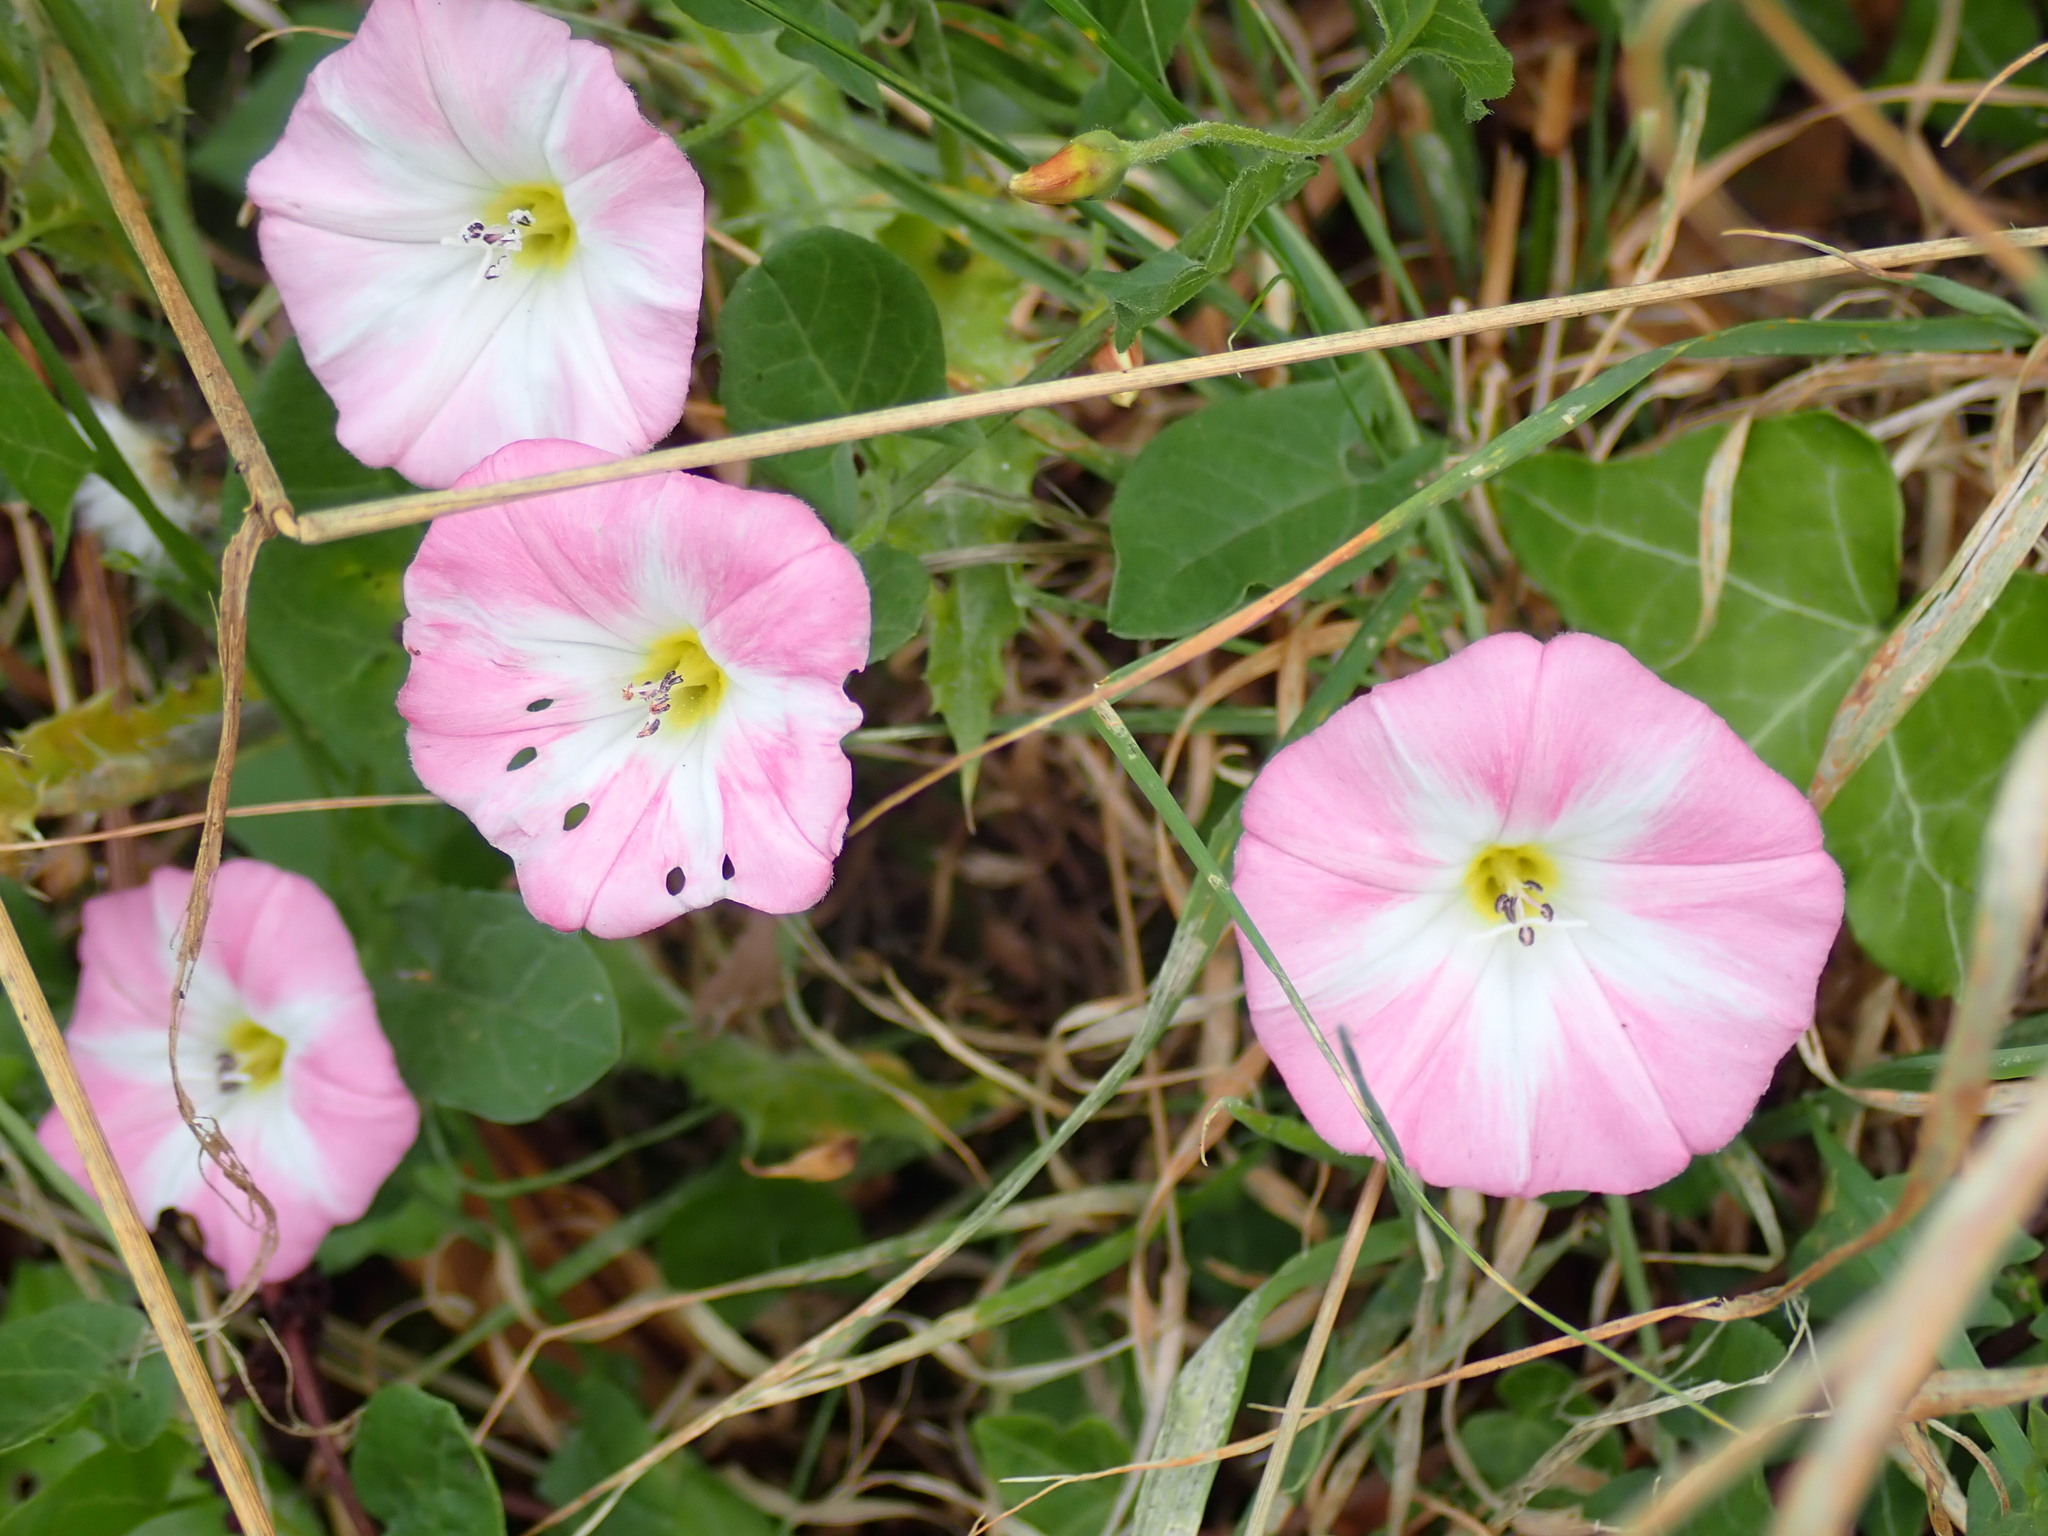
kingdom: Plantae
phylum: Tracheophyta
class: Magnoliopsida
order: Solanales
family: Convolvulaceae
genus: Convolvulus
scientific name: Convolvulus arvensis
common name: Field bindweed
